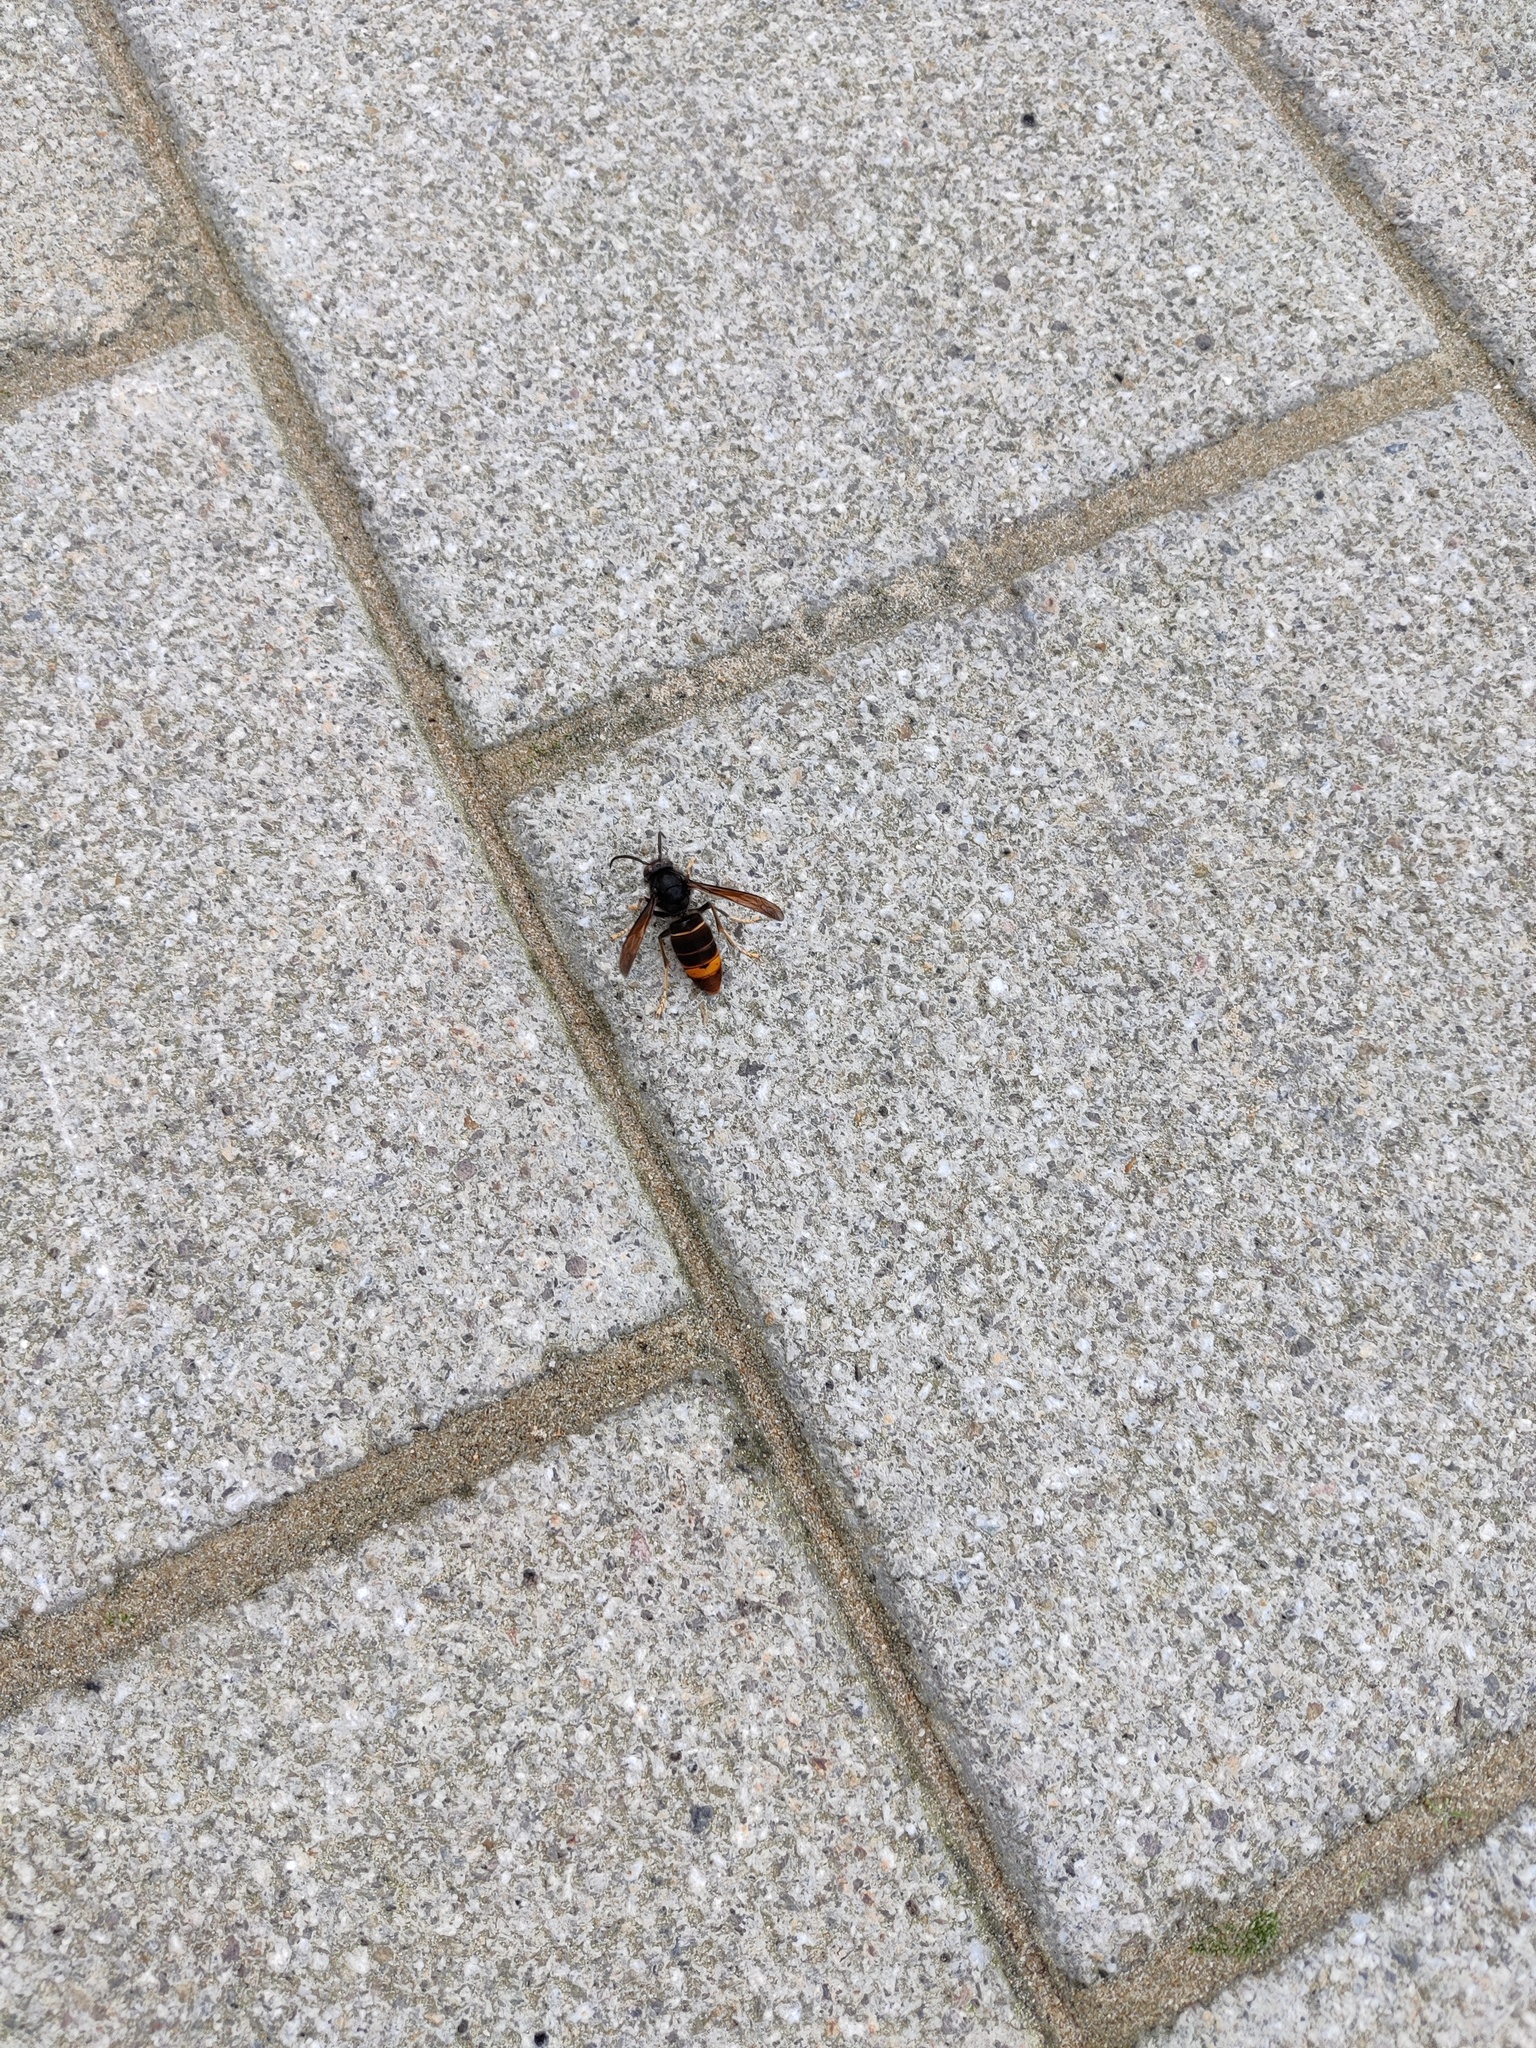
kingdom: Animalia
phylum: Arthropoda
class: Insecta
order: Hymenoptera
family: Vespidae
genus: Vespa
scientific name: Vespa velutina
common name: Asian hornet
